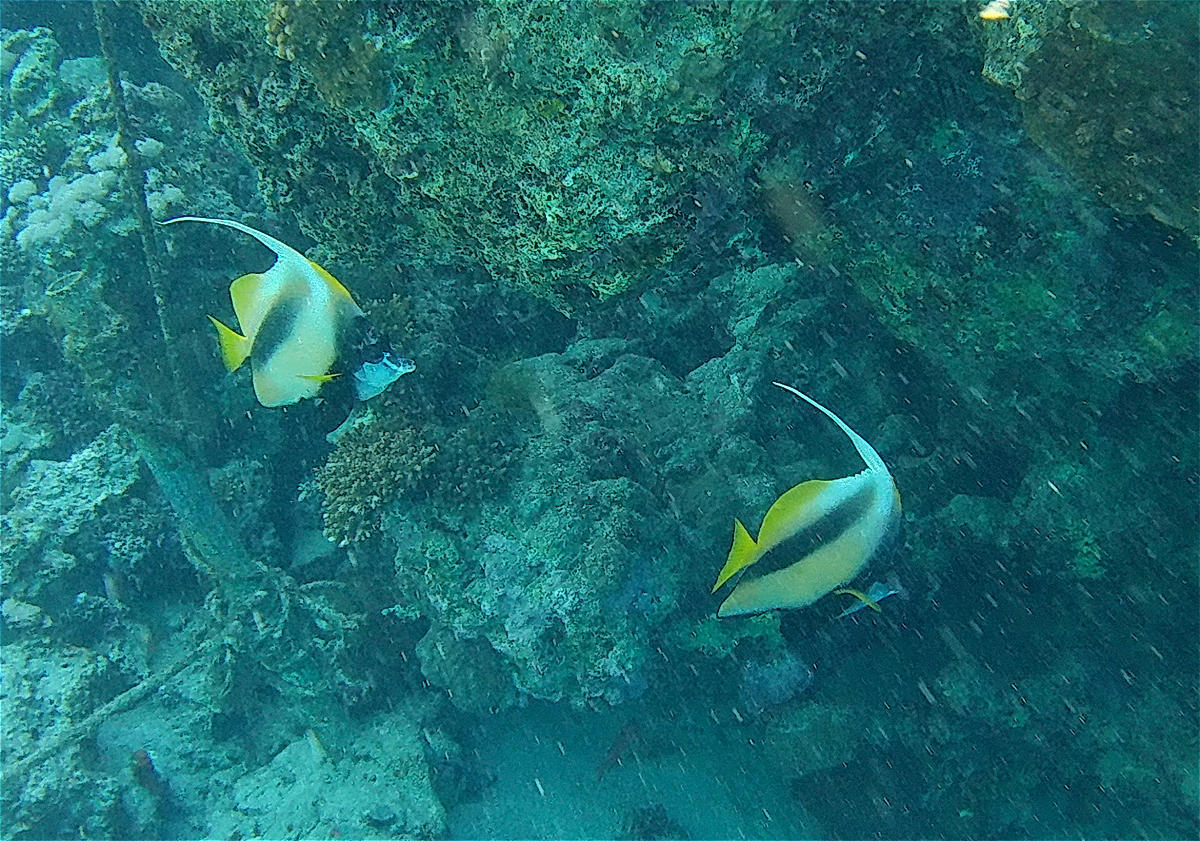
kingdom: Animalia
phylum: Chordata
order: Perciformes
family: Chaetodontidae
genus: Heniochus
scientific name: Heniochus intermedius
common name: Red sea bannerfish
